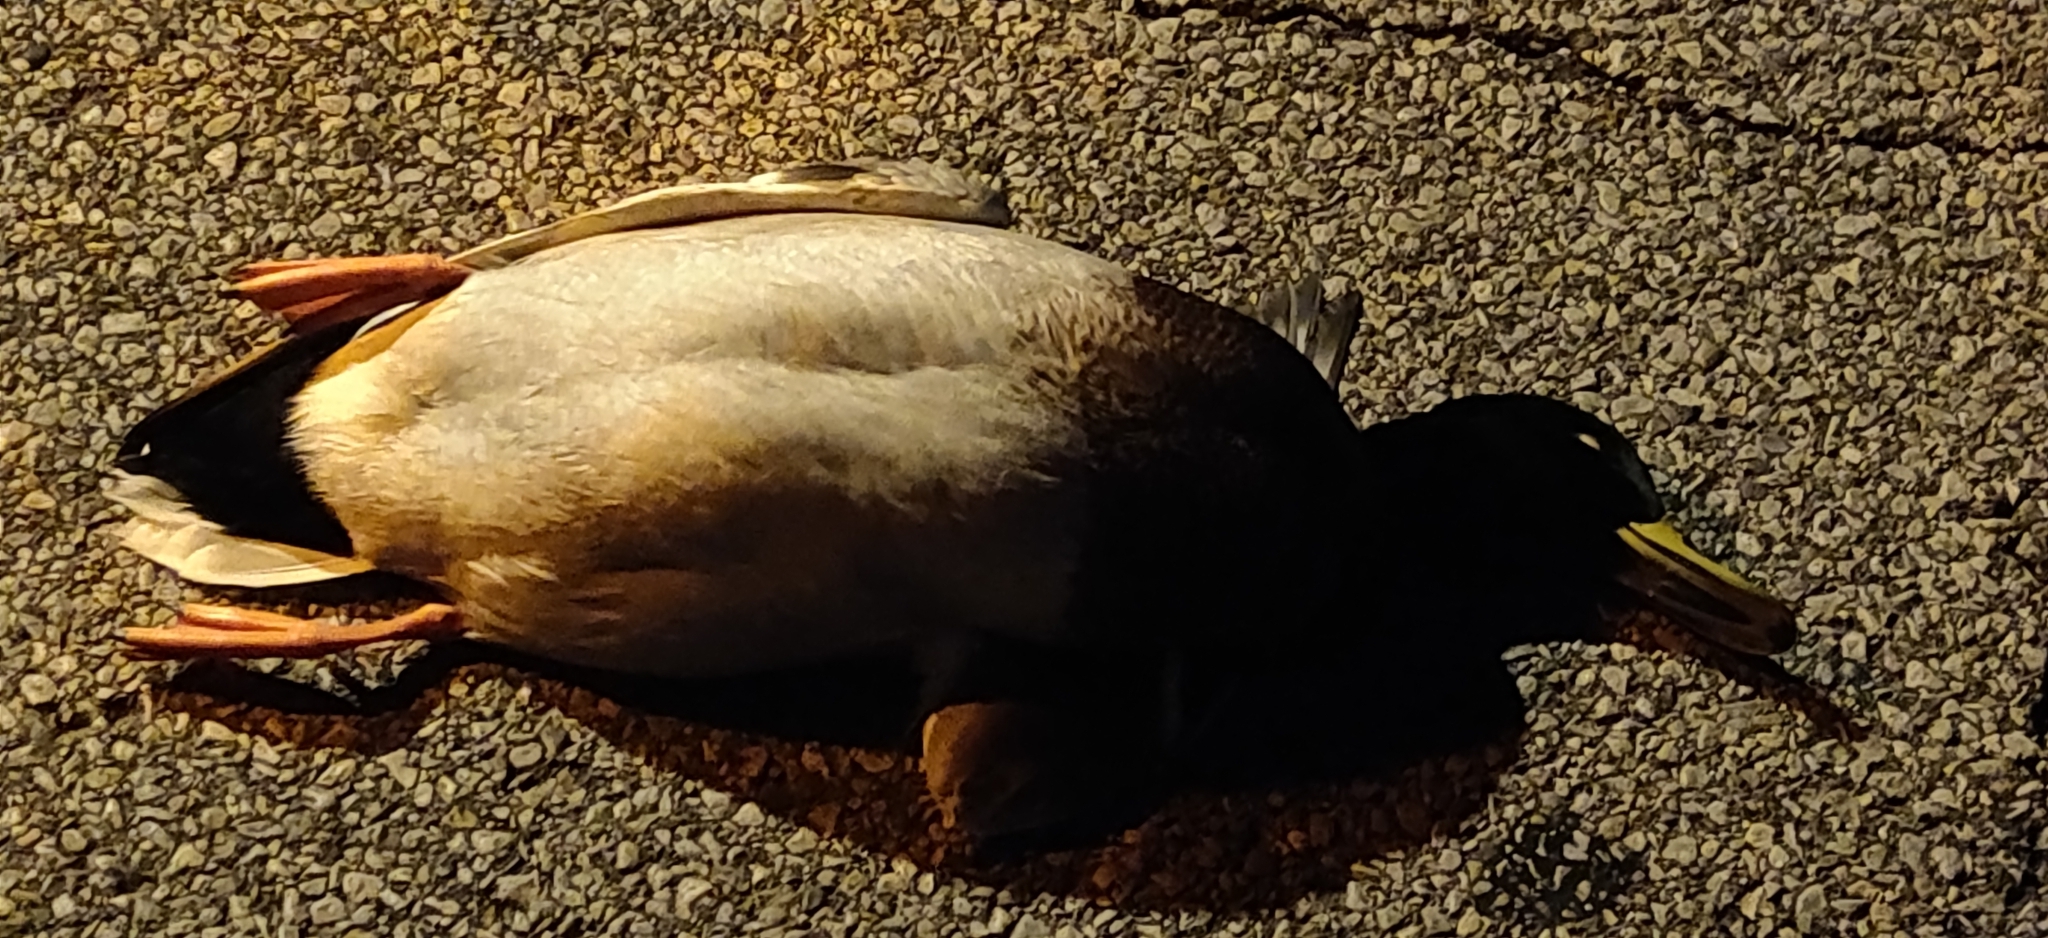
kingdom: Animalia
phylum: Chordata
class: Aves
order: Anseriformes
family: Anatidae
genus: Anas
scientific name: Anas platyrhynchos
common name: Mallard
